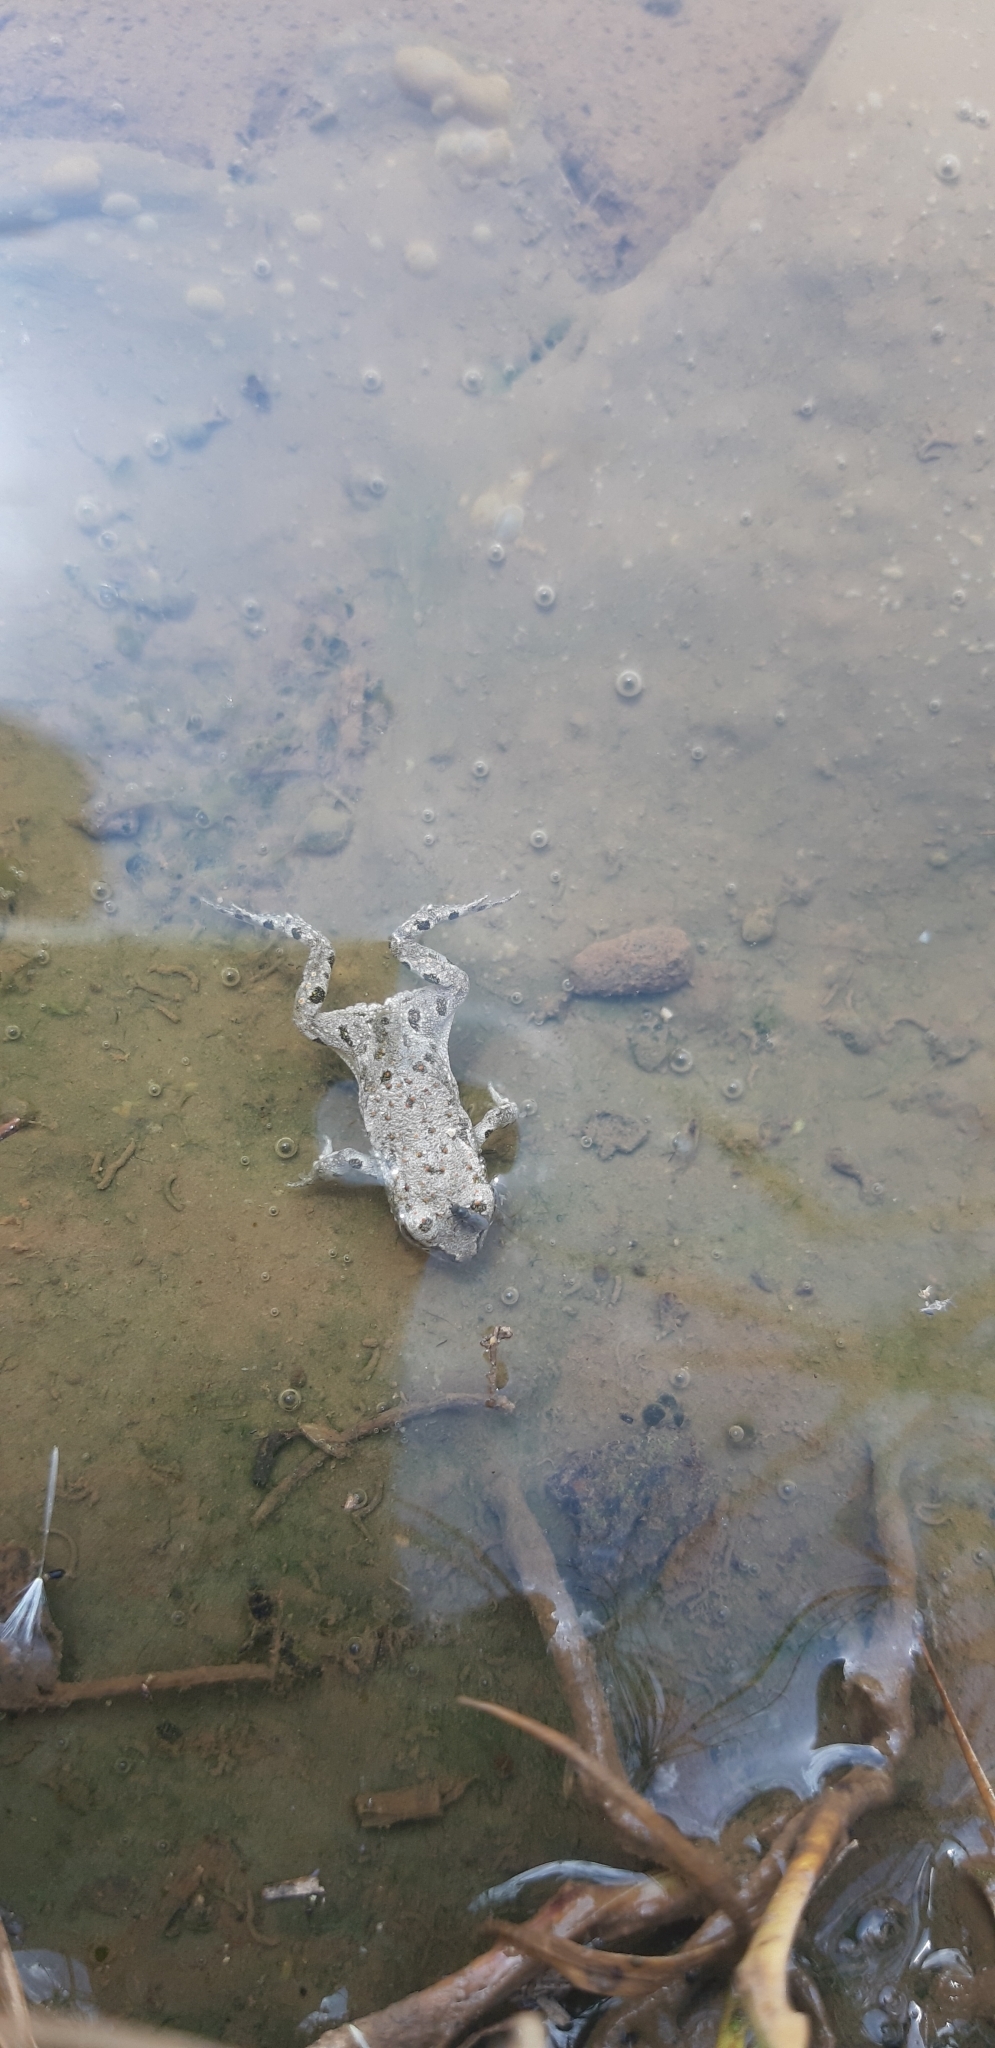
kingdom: Animalia
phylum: Chordata
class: Amphibia
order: Anura
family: Bufonidae
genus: Bufotes
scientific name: Bufotes viridis
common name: European green toad
